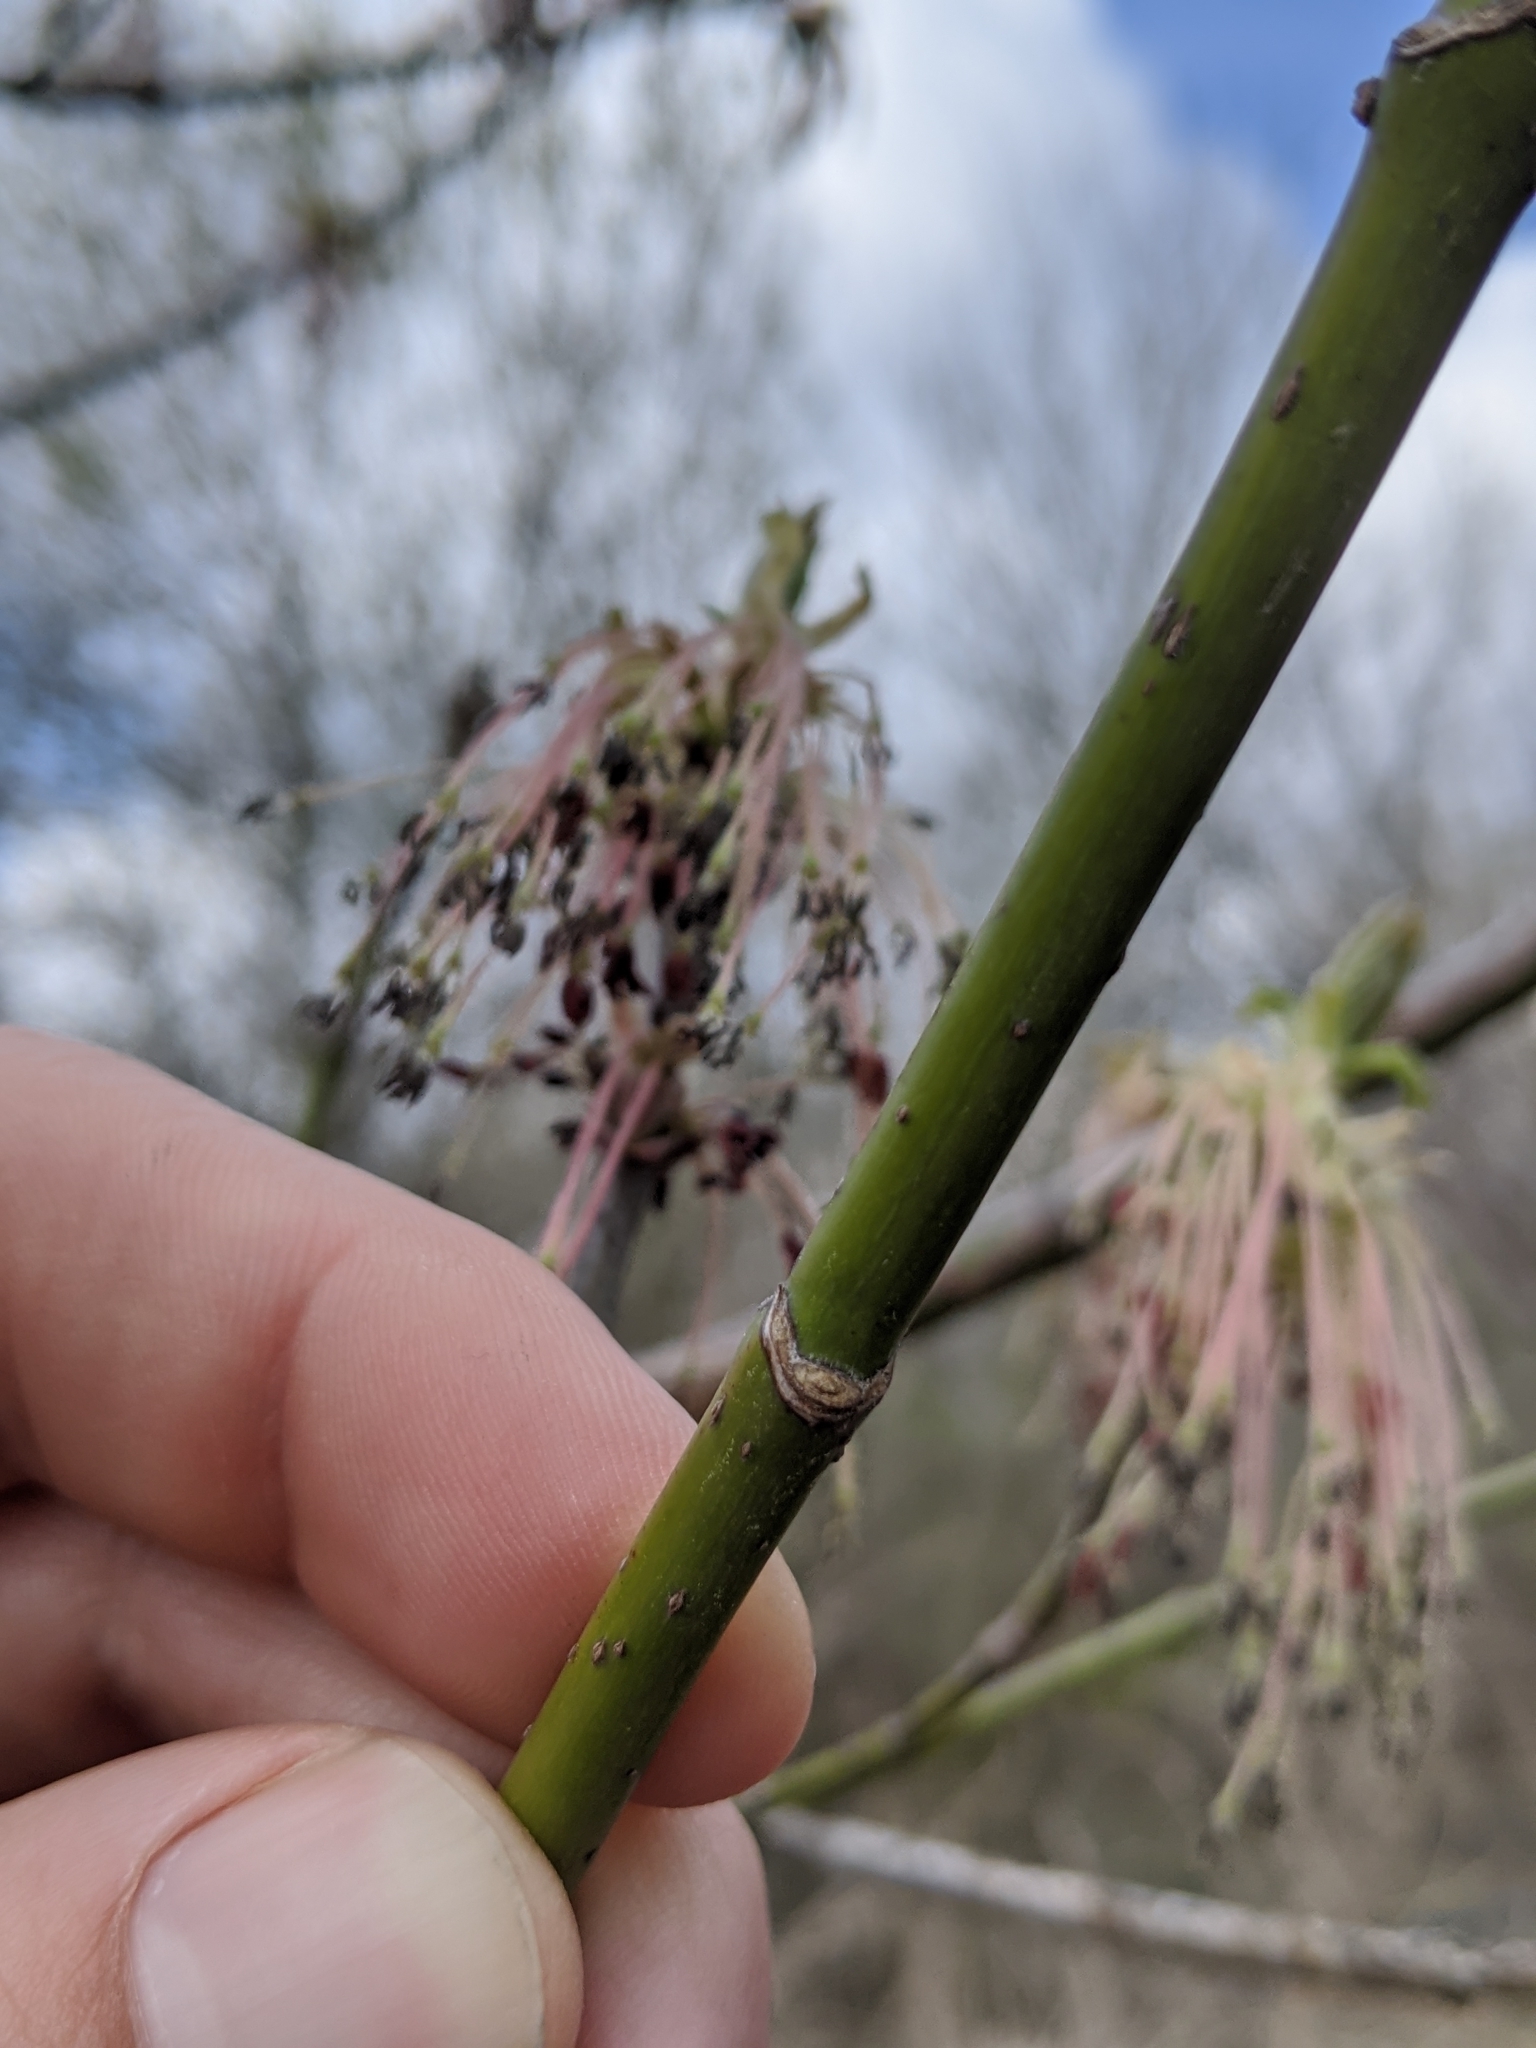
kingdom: Plantae
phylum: Tracheophyta
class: Magnoliopsida
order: Sapindales
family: Sapindaceae
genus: Acer
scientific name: Acer negundo
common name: Ashleaf maple
